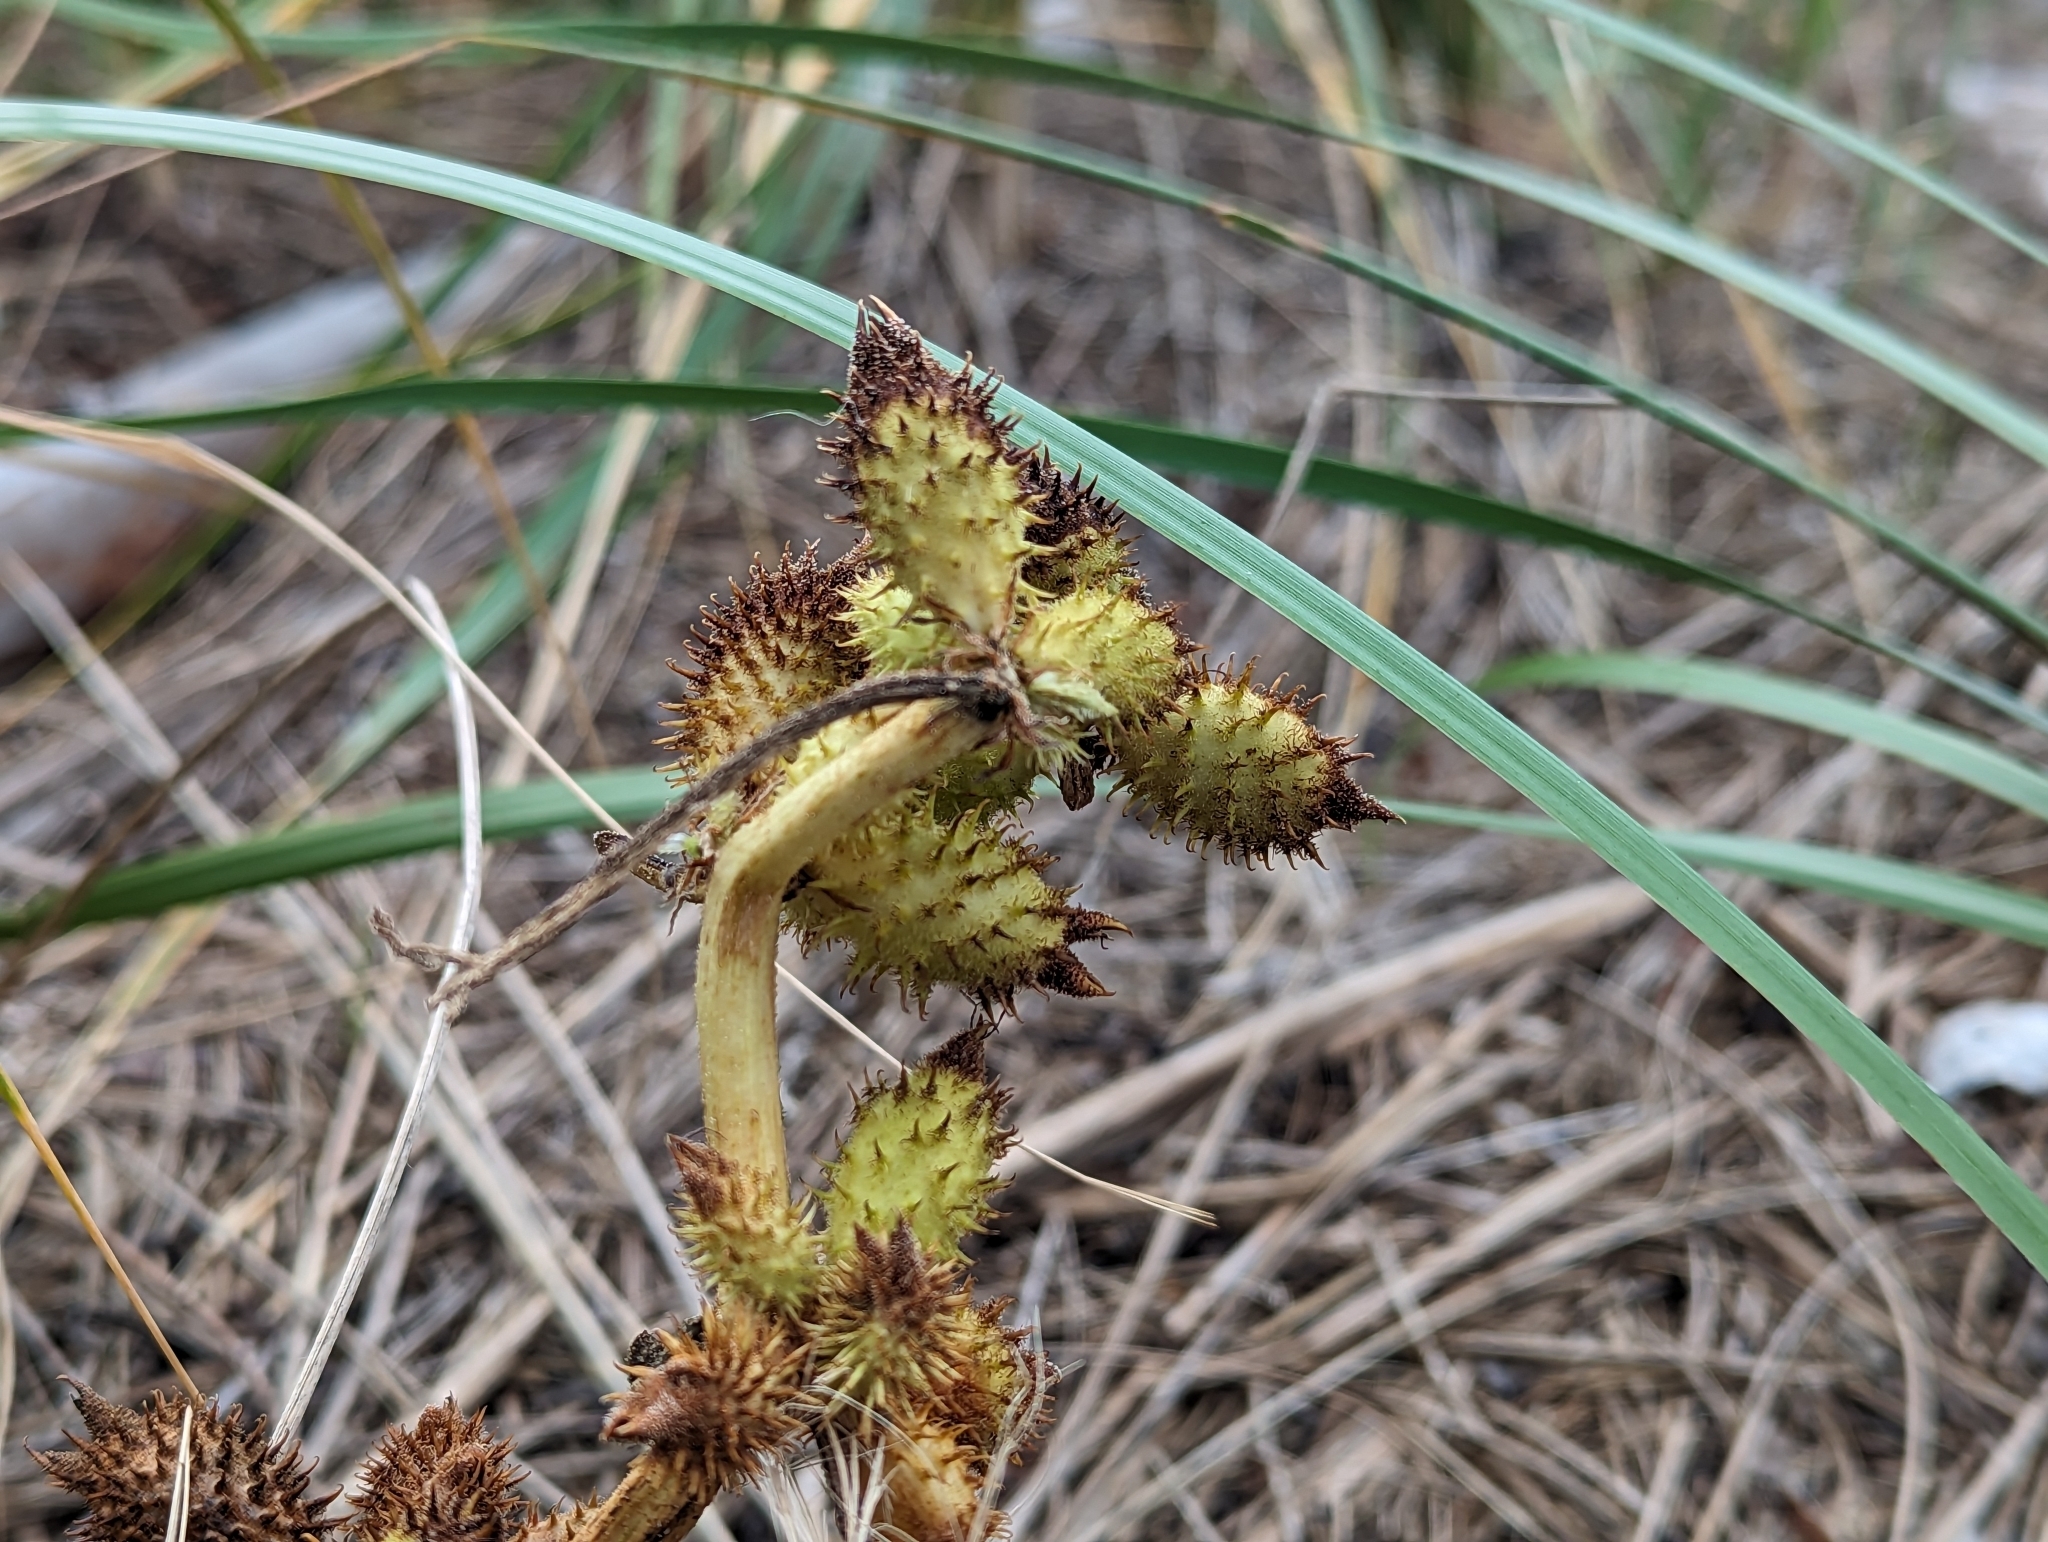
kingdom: Plantae
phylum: Tracheophyta
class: Magnoliopsida
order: Asterales
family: Asteraceae
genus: Xanthium
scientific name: Xanthium strumarium
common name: Rough cocklebur
